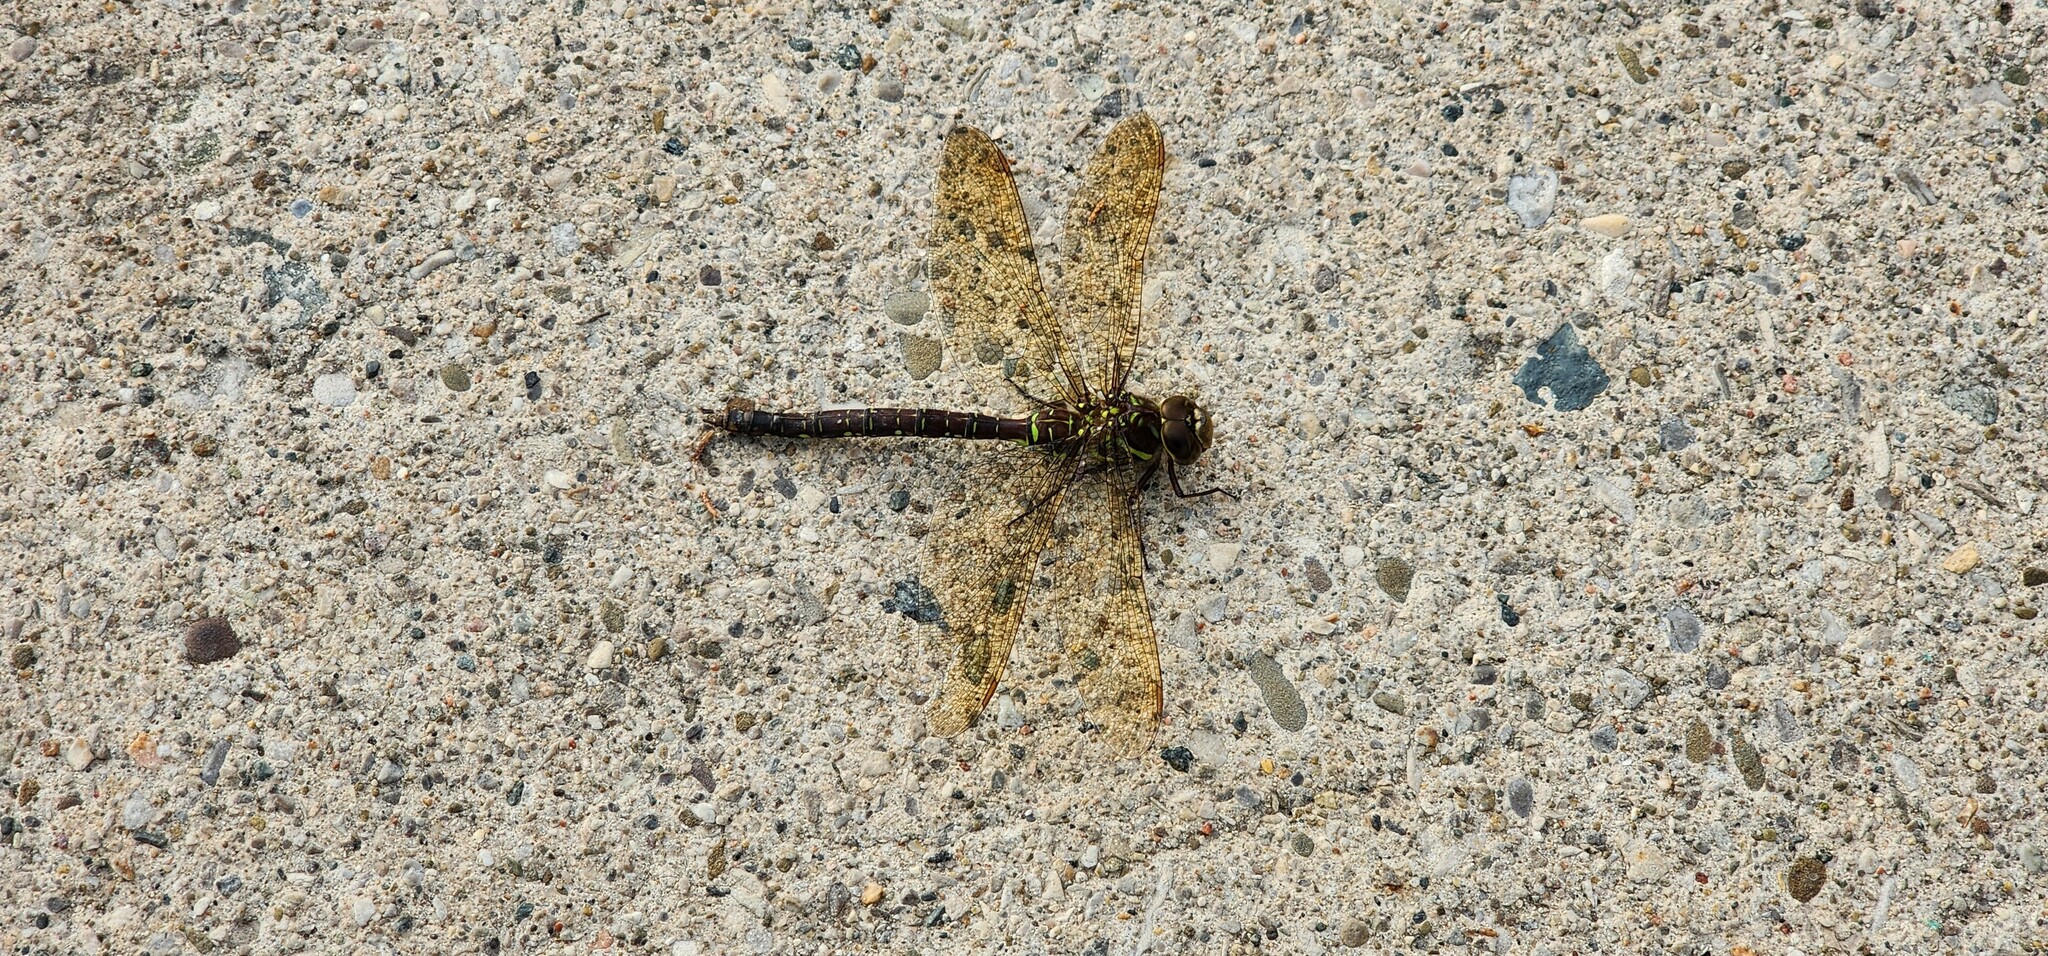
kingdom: Animalia
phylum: Arthropoda
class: Insecta
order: Odonata
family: Aeshnidae
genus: Aeshna
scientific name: Aeshna umbrosa
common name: Shadow darner
